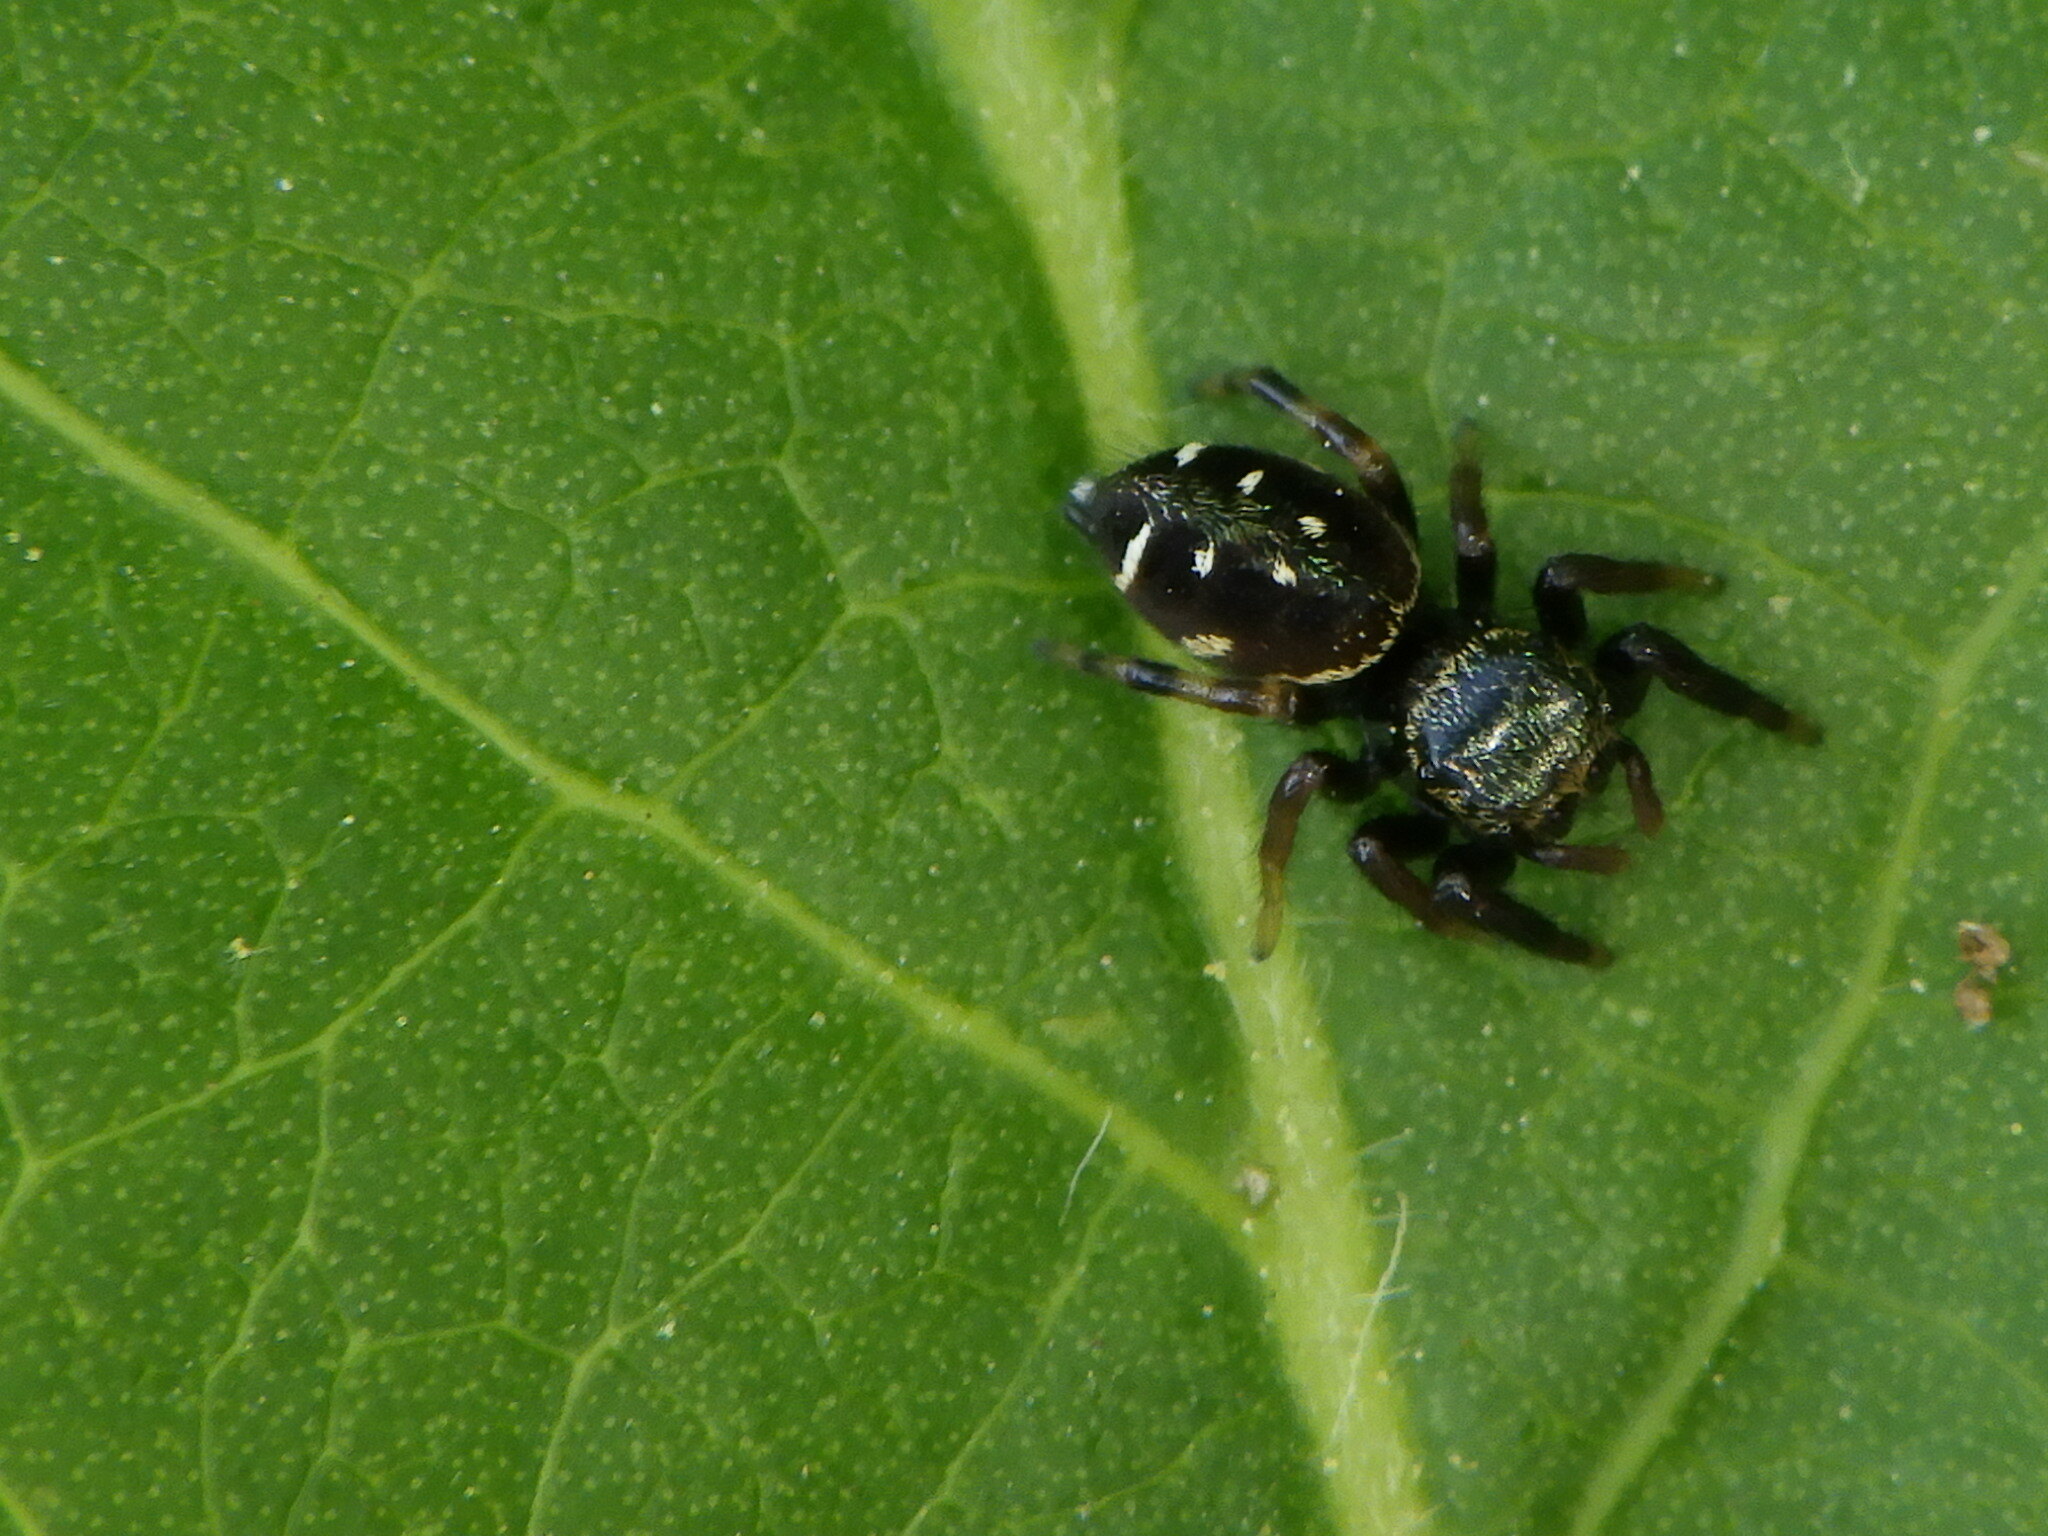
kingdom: Animalia
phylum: Arthropoda
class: Arachnida
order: Araneae
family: Salticidae
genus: Paraphidippus
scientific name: Paraphidippus aurantius
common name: Jumping spiders
